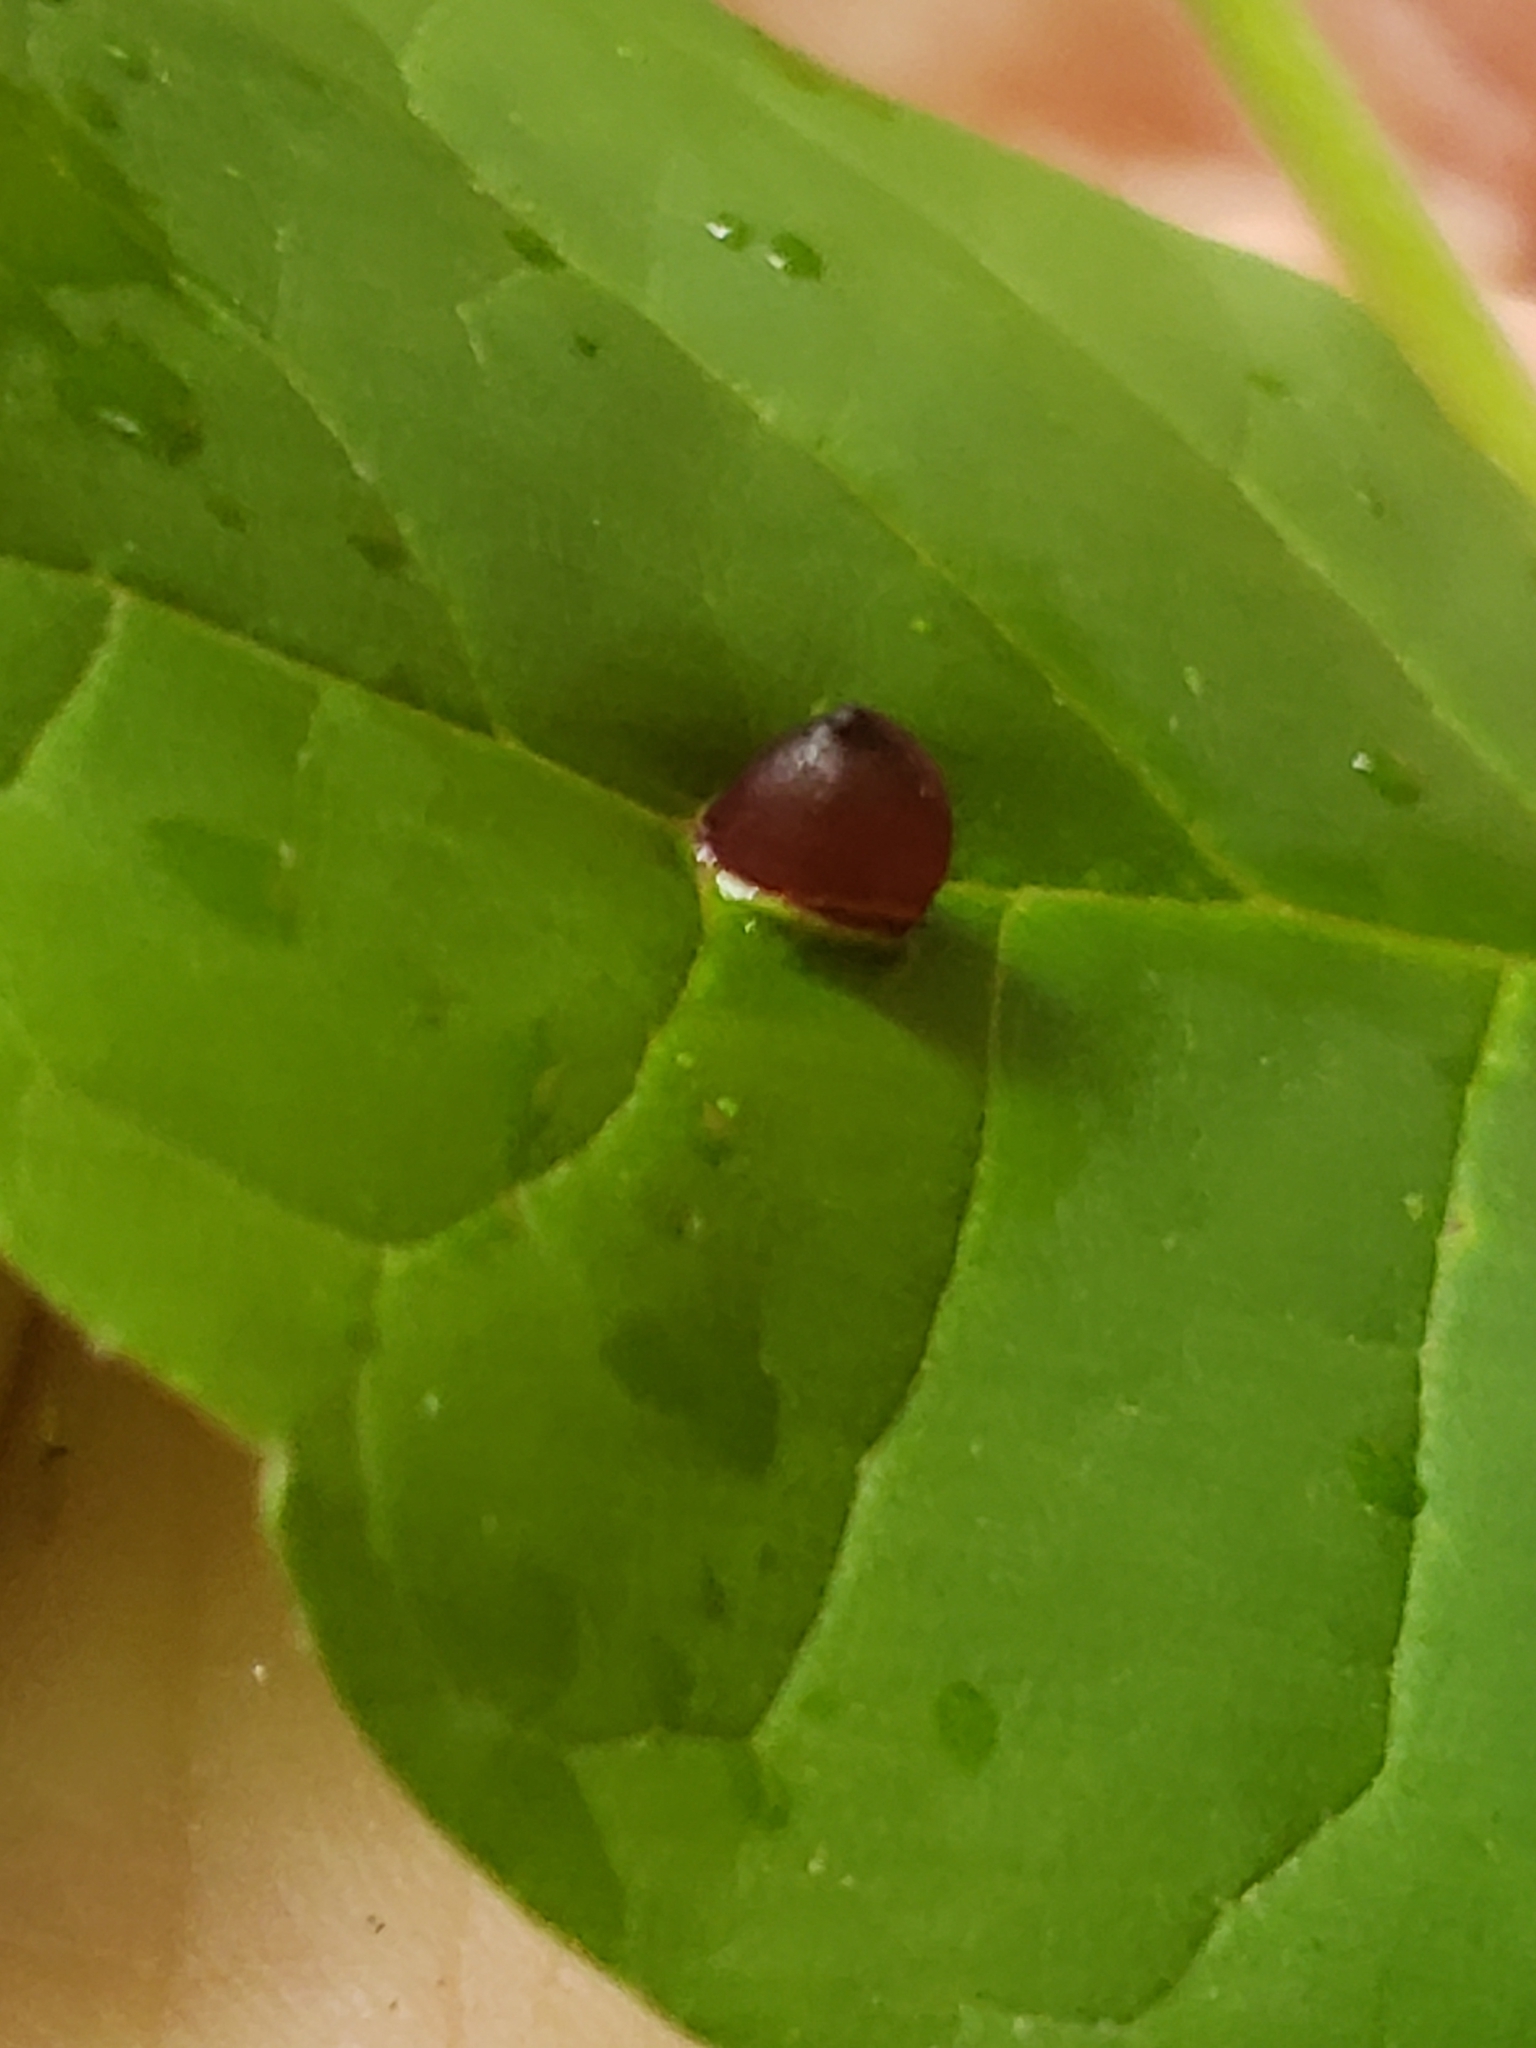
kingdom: Animalia
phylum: Arthropoda
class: Insecta
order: Diptera
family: Cecidomyiidae
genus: Dasineura
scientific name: Dasineura pellex
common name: Ash bullet gall midge
